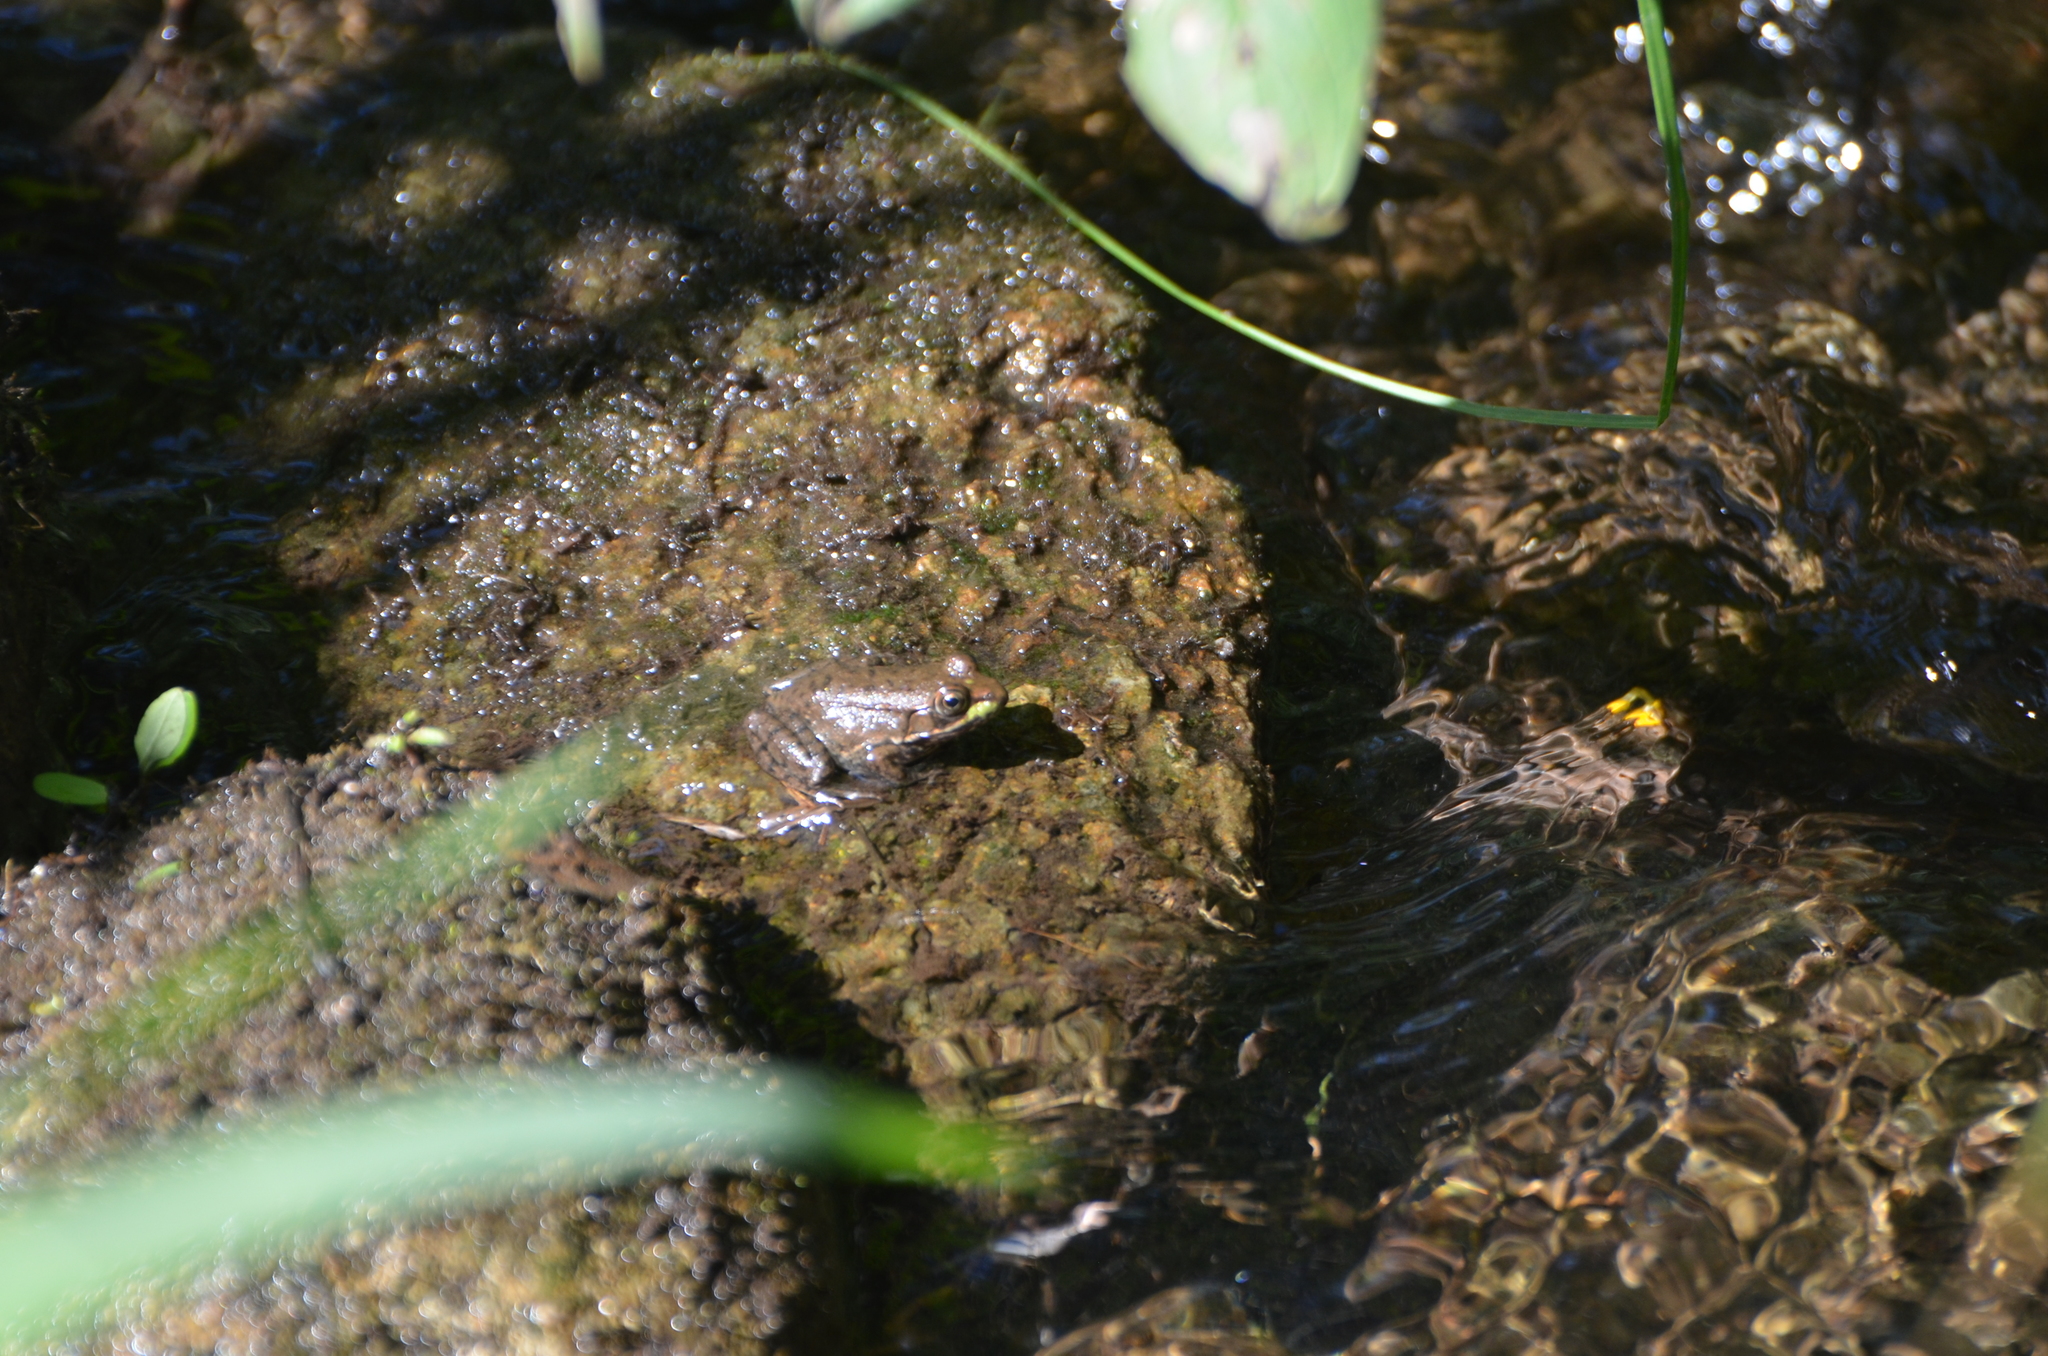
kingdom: Animalia
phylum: Chordata
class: Amphibia
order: Anura
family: Ranidae
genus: Lithobates
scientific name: Lithobates clamitans
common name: Green frog
